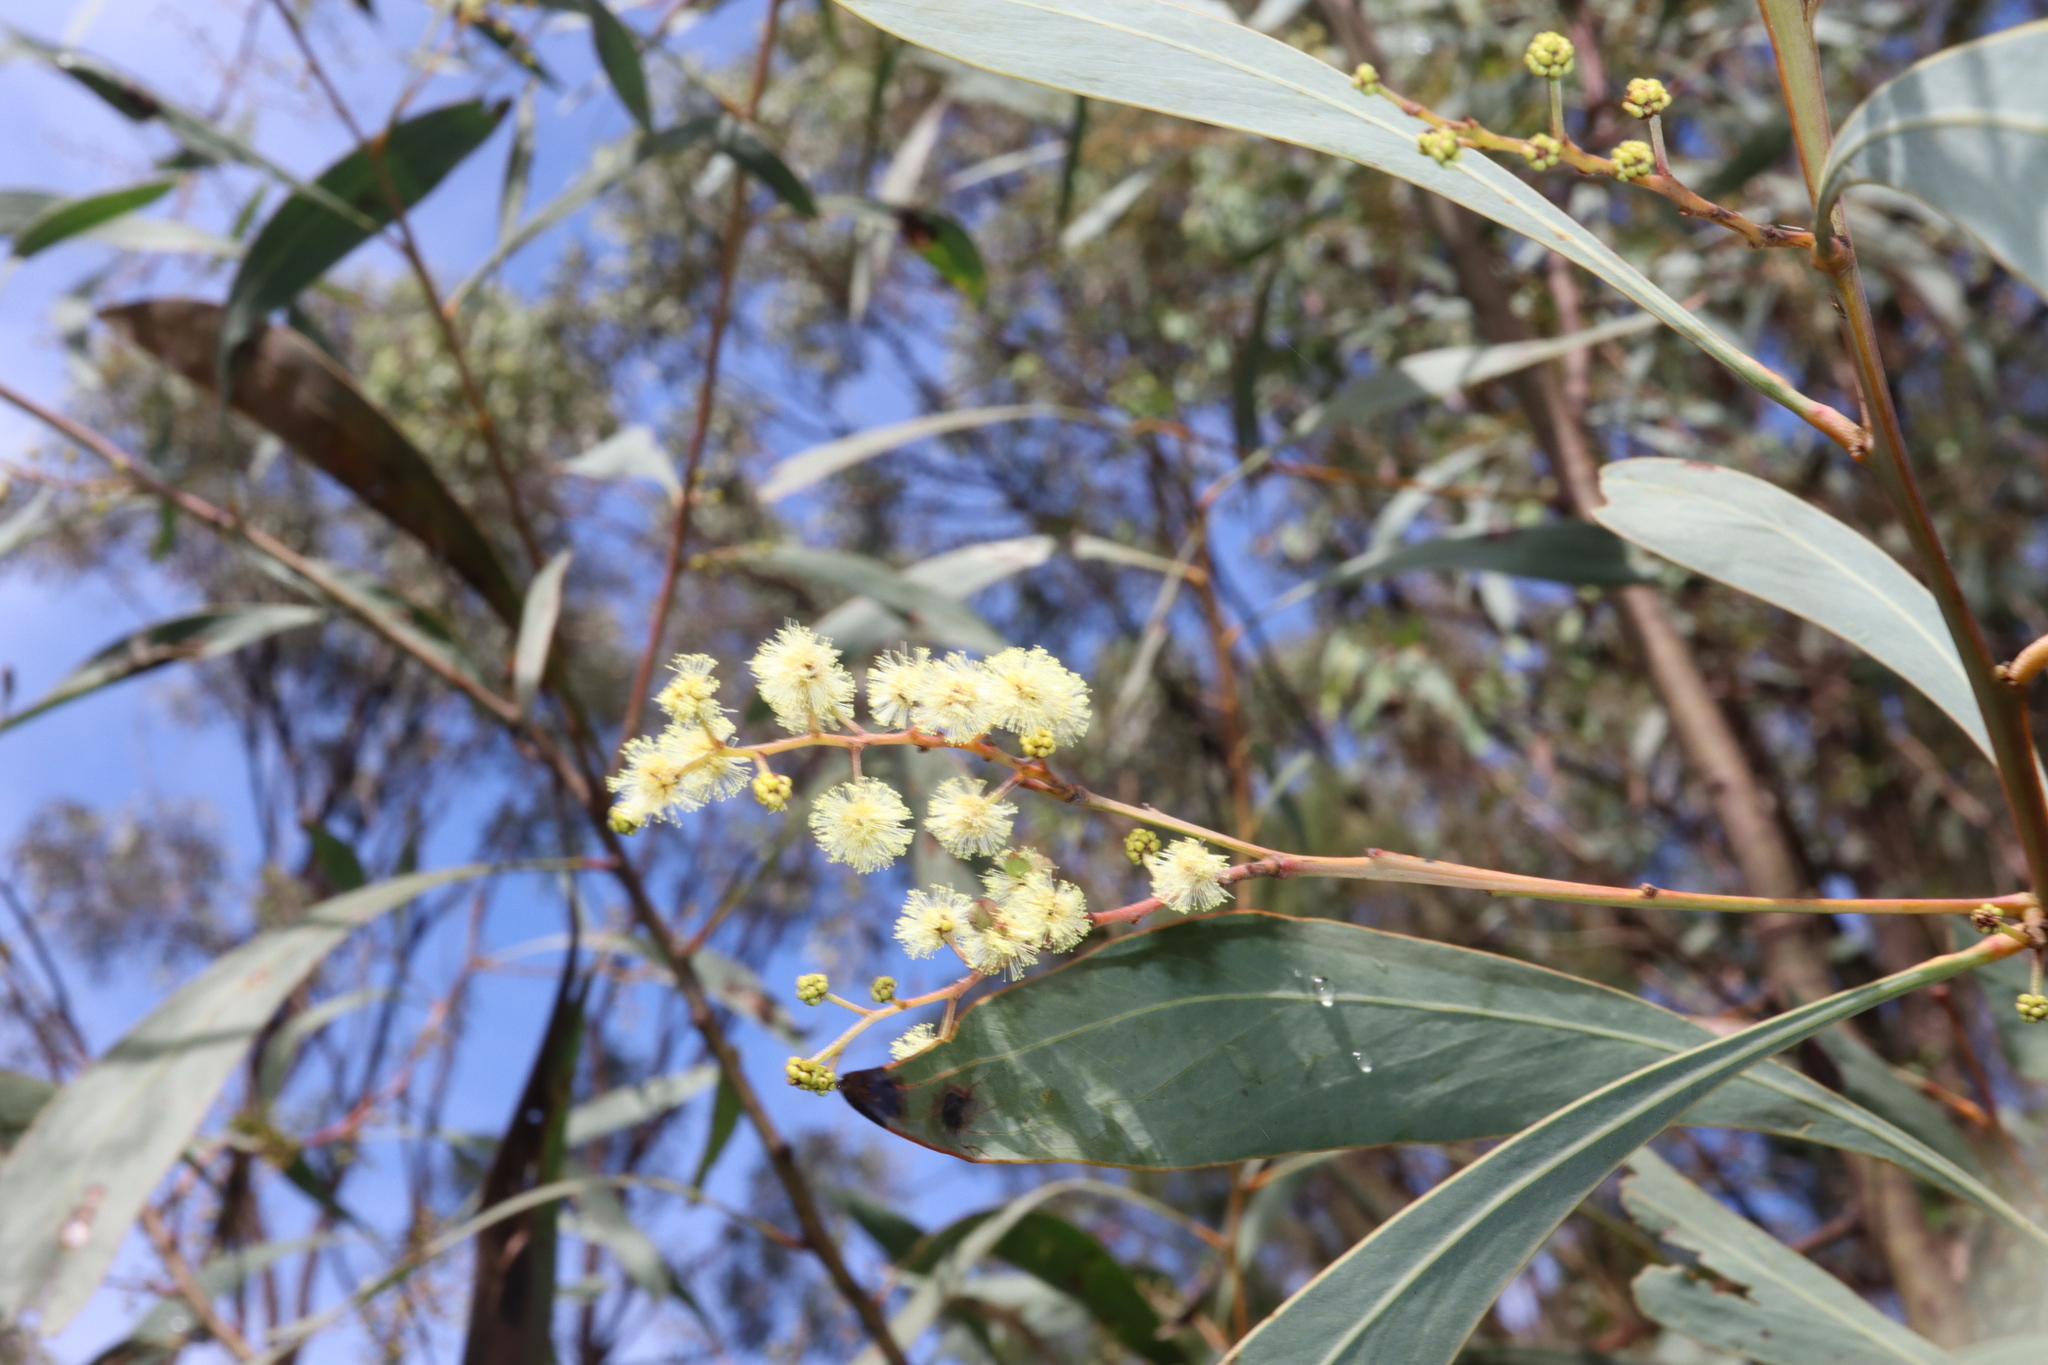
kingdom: Plantae
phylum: Tracheophyta
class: Magnoliopsida
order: Fabales
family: Fabaceae
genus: Acacia
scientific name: Acacia falcata
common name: Burra acacia
